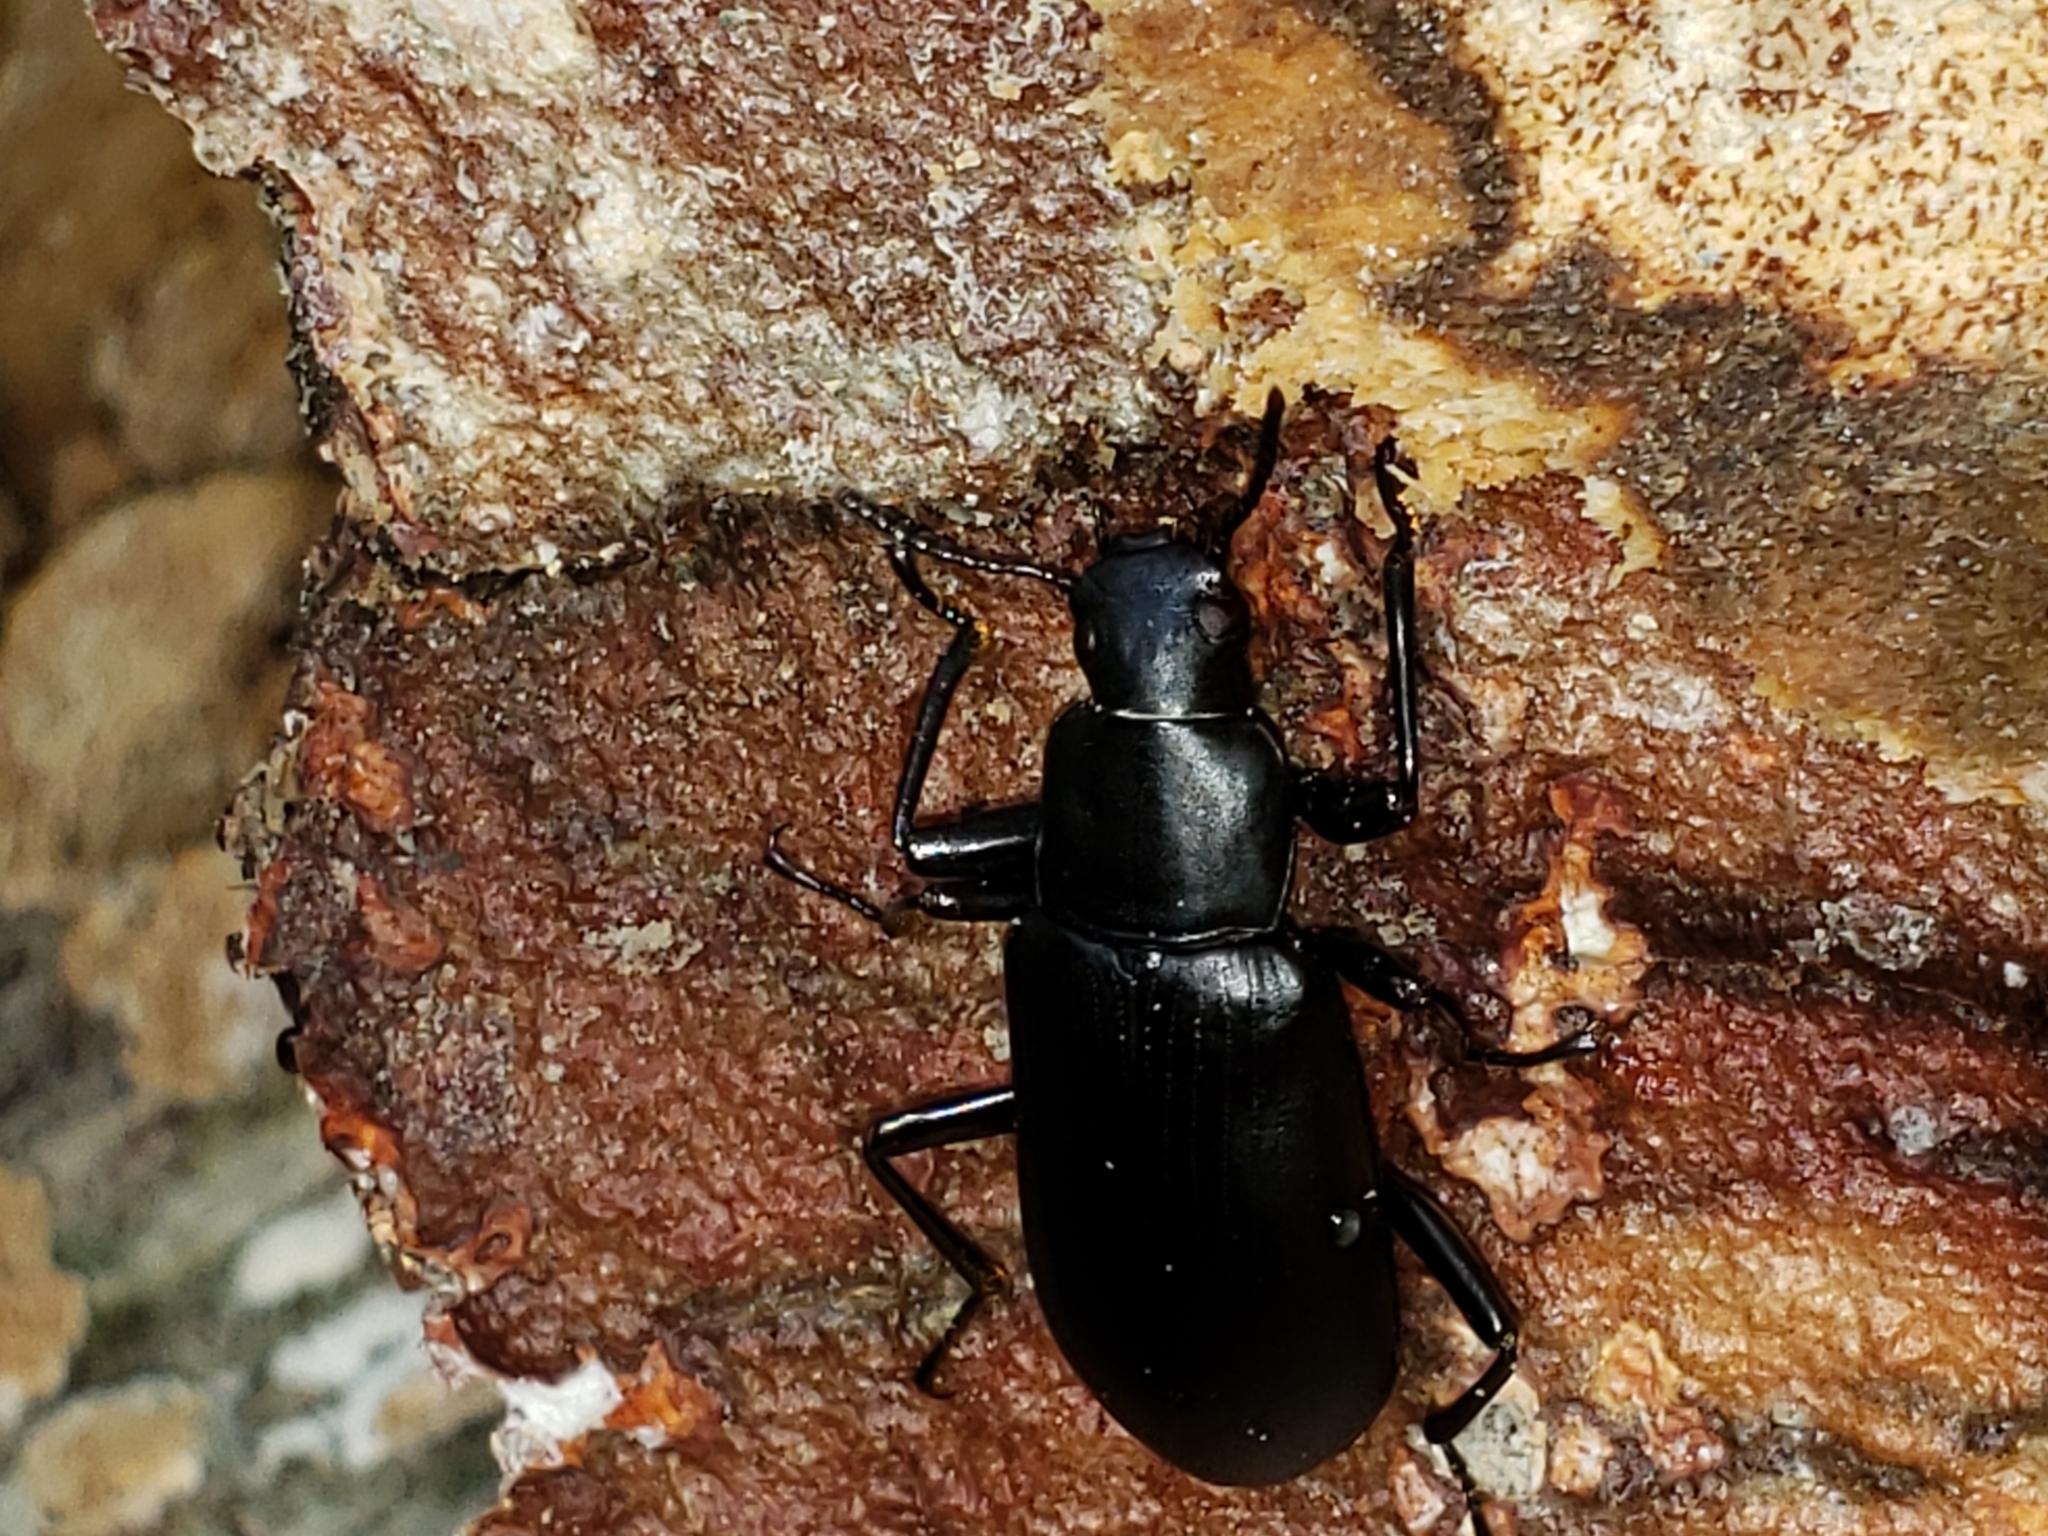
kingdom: Animalia
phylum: Arthropoda
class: Insecta
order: Coleoptera
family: Tenebrionidae
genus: Alobates
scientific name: Alobates
